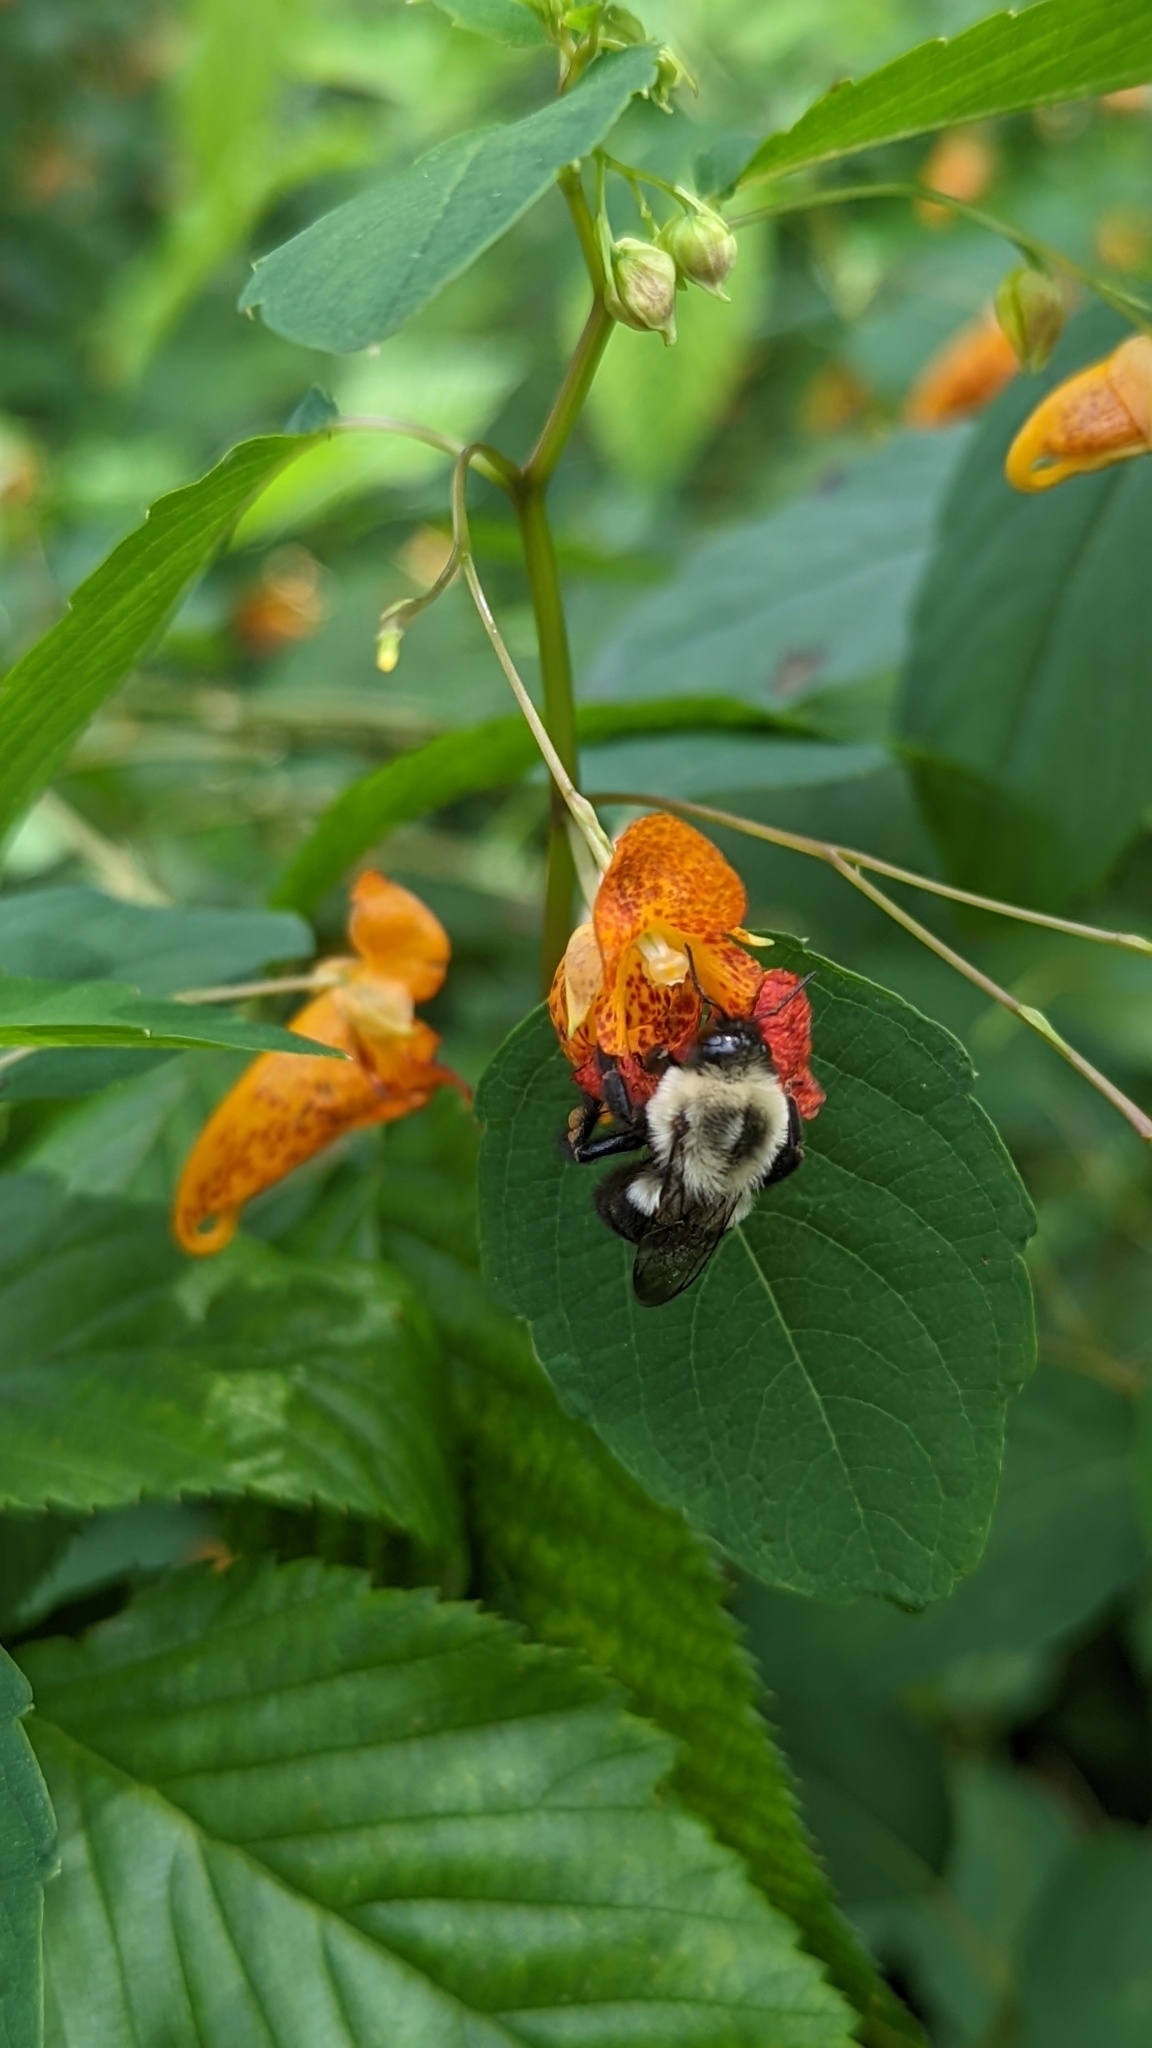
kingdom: Animalia
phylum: Arthropoda
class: Insecta
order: Hymenoptera
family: Apidae
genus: Bombus
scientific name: Bombus impatiens
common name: Common eastern bumble bee
